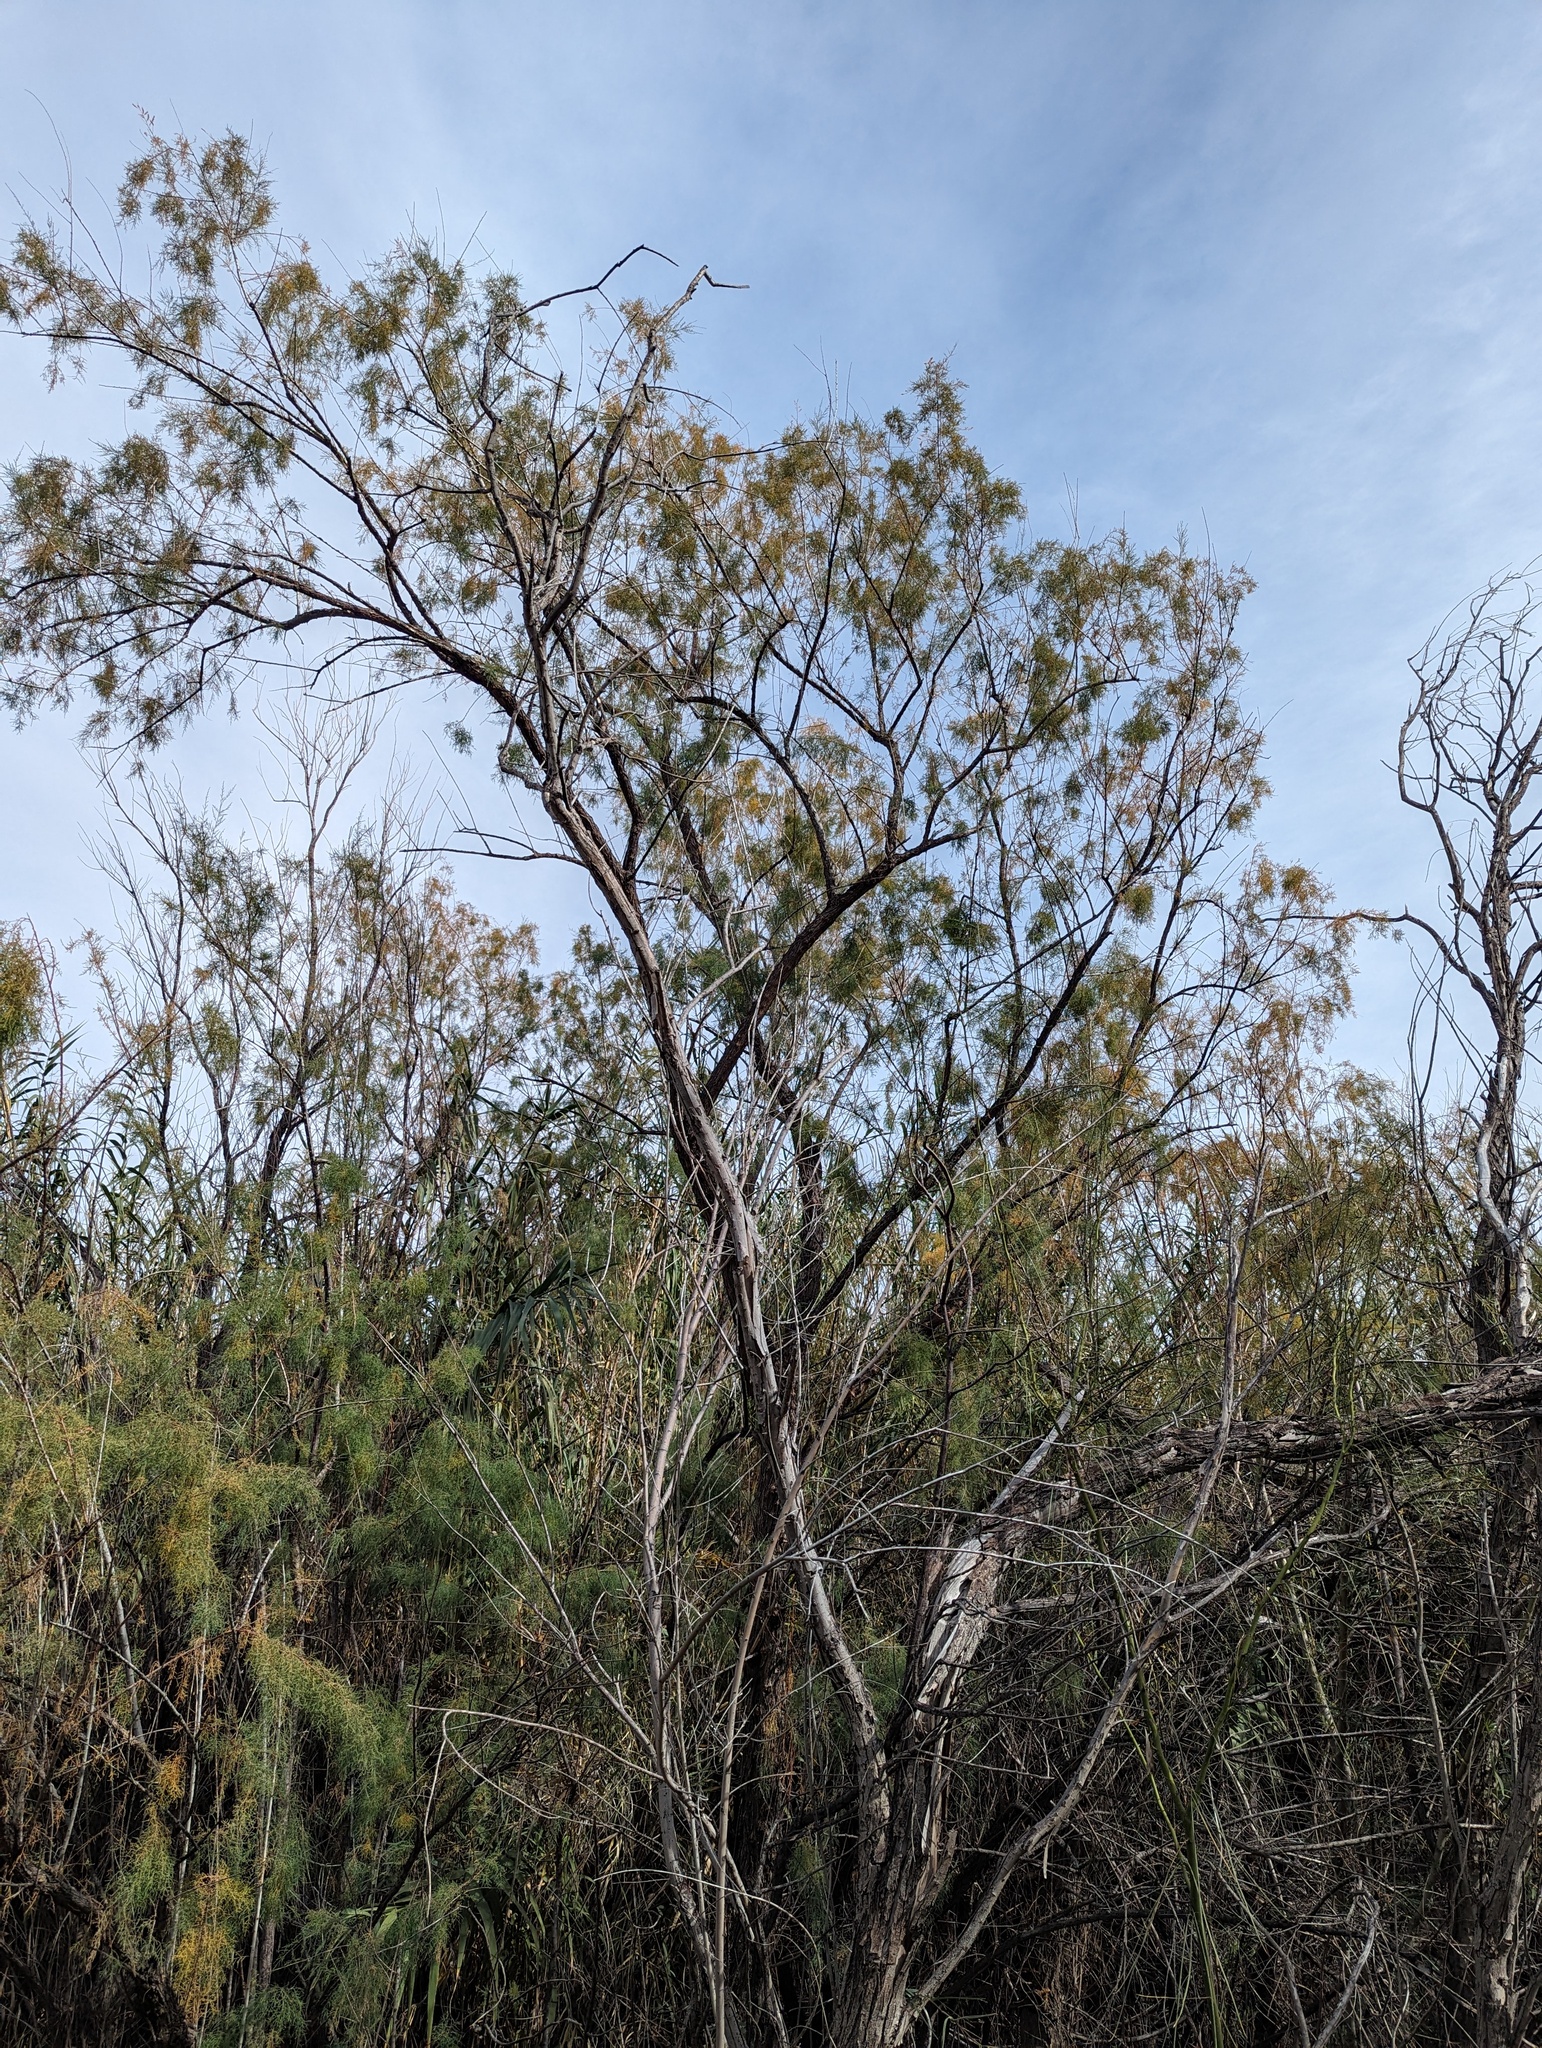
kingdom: Plantae
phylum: Tracheophyta
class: Magnoliopsida
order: Caryophyllales
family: Tamaricaceae
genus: Tamarix
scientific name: Tamarix
